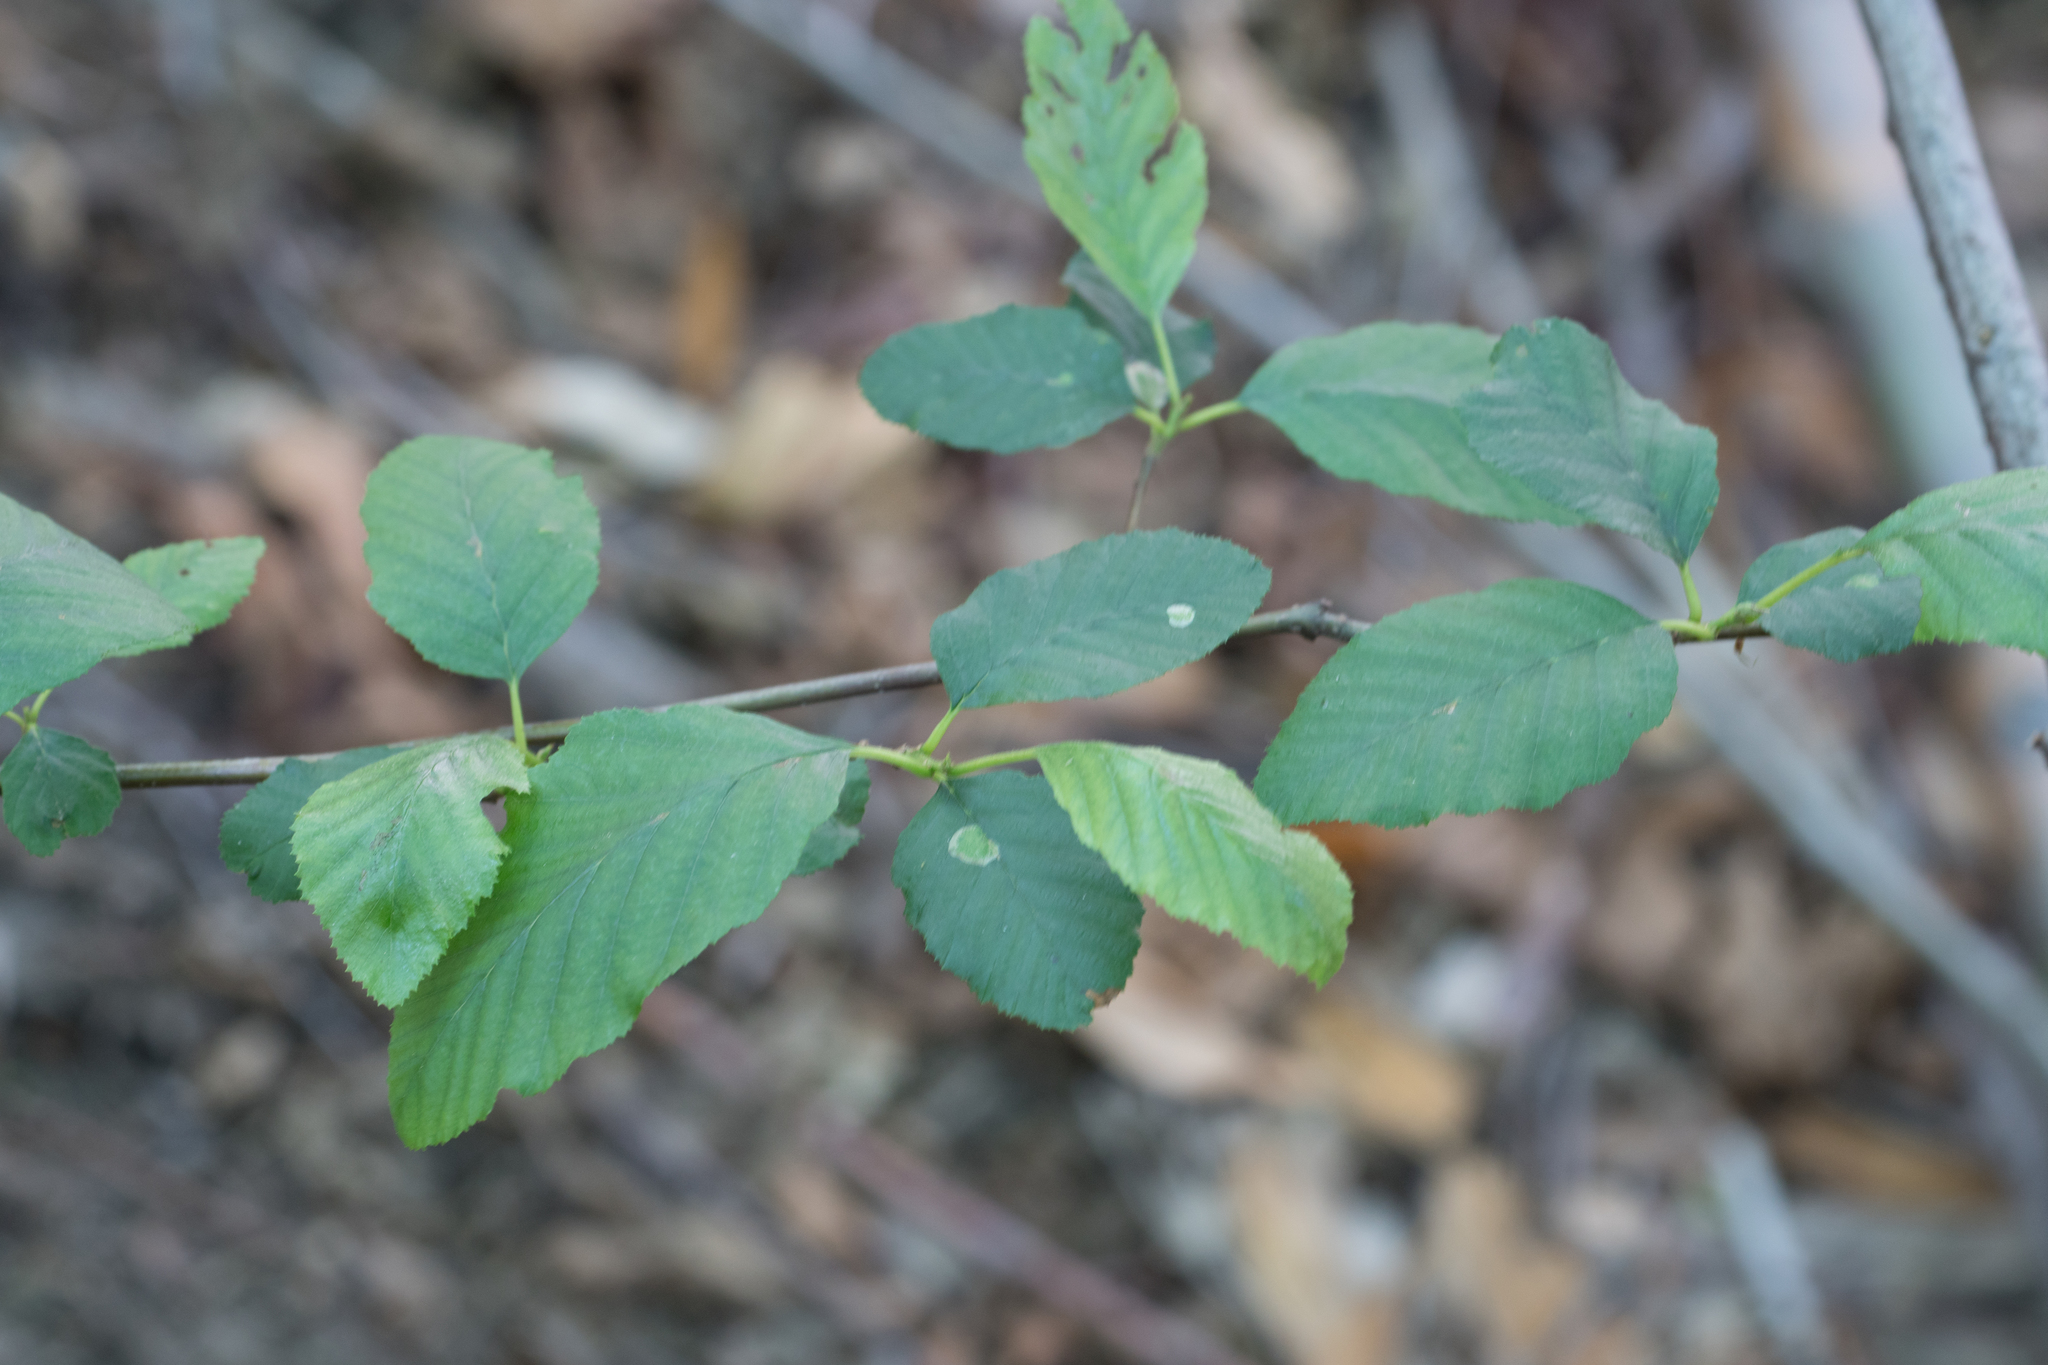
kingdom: Plantae
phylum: Tracheophyta
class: Magnoliopsida
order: Fagales
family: Betulaceae
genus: Alnus
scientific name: Alnus rhombifolia
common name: California alder
